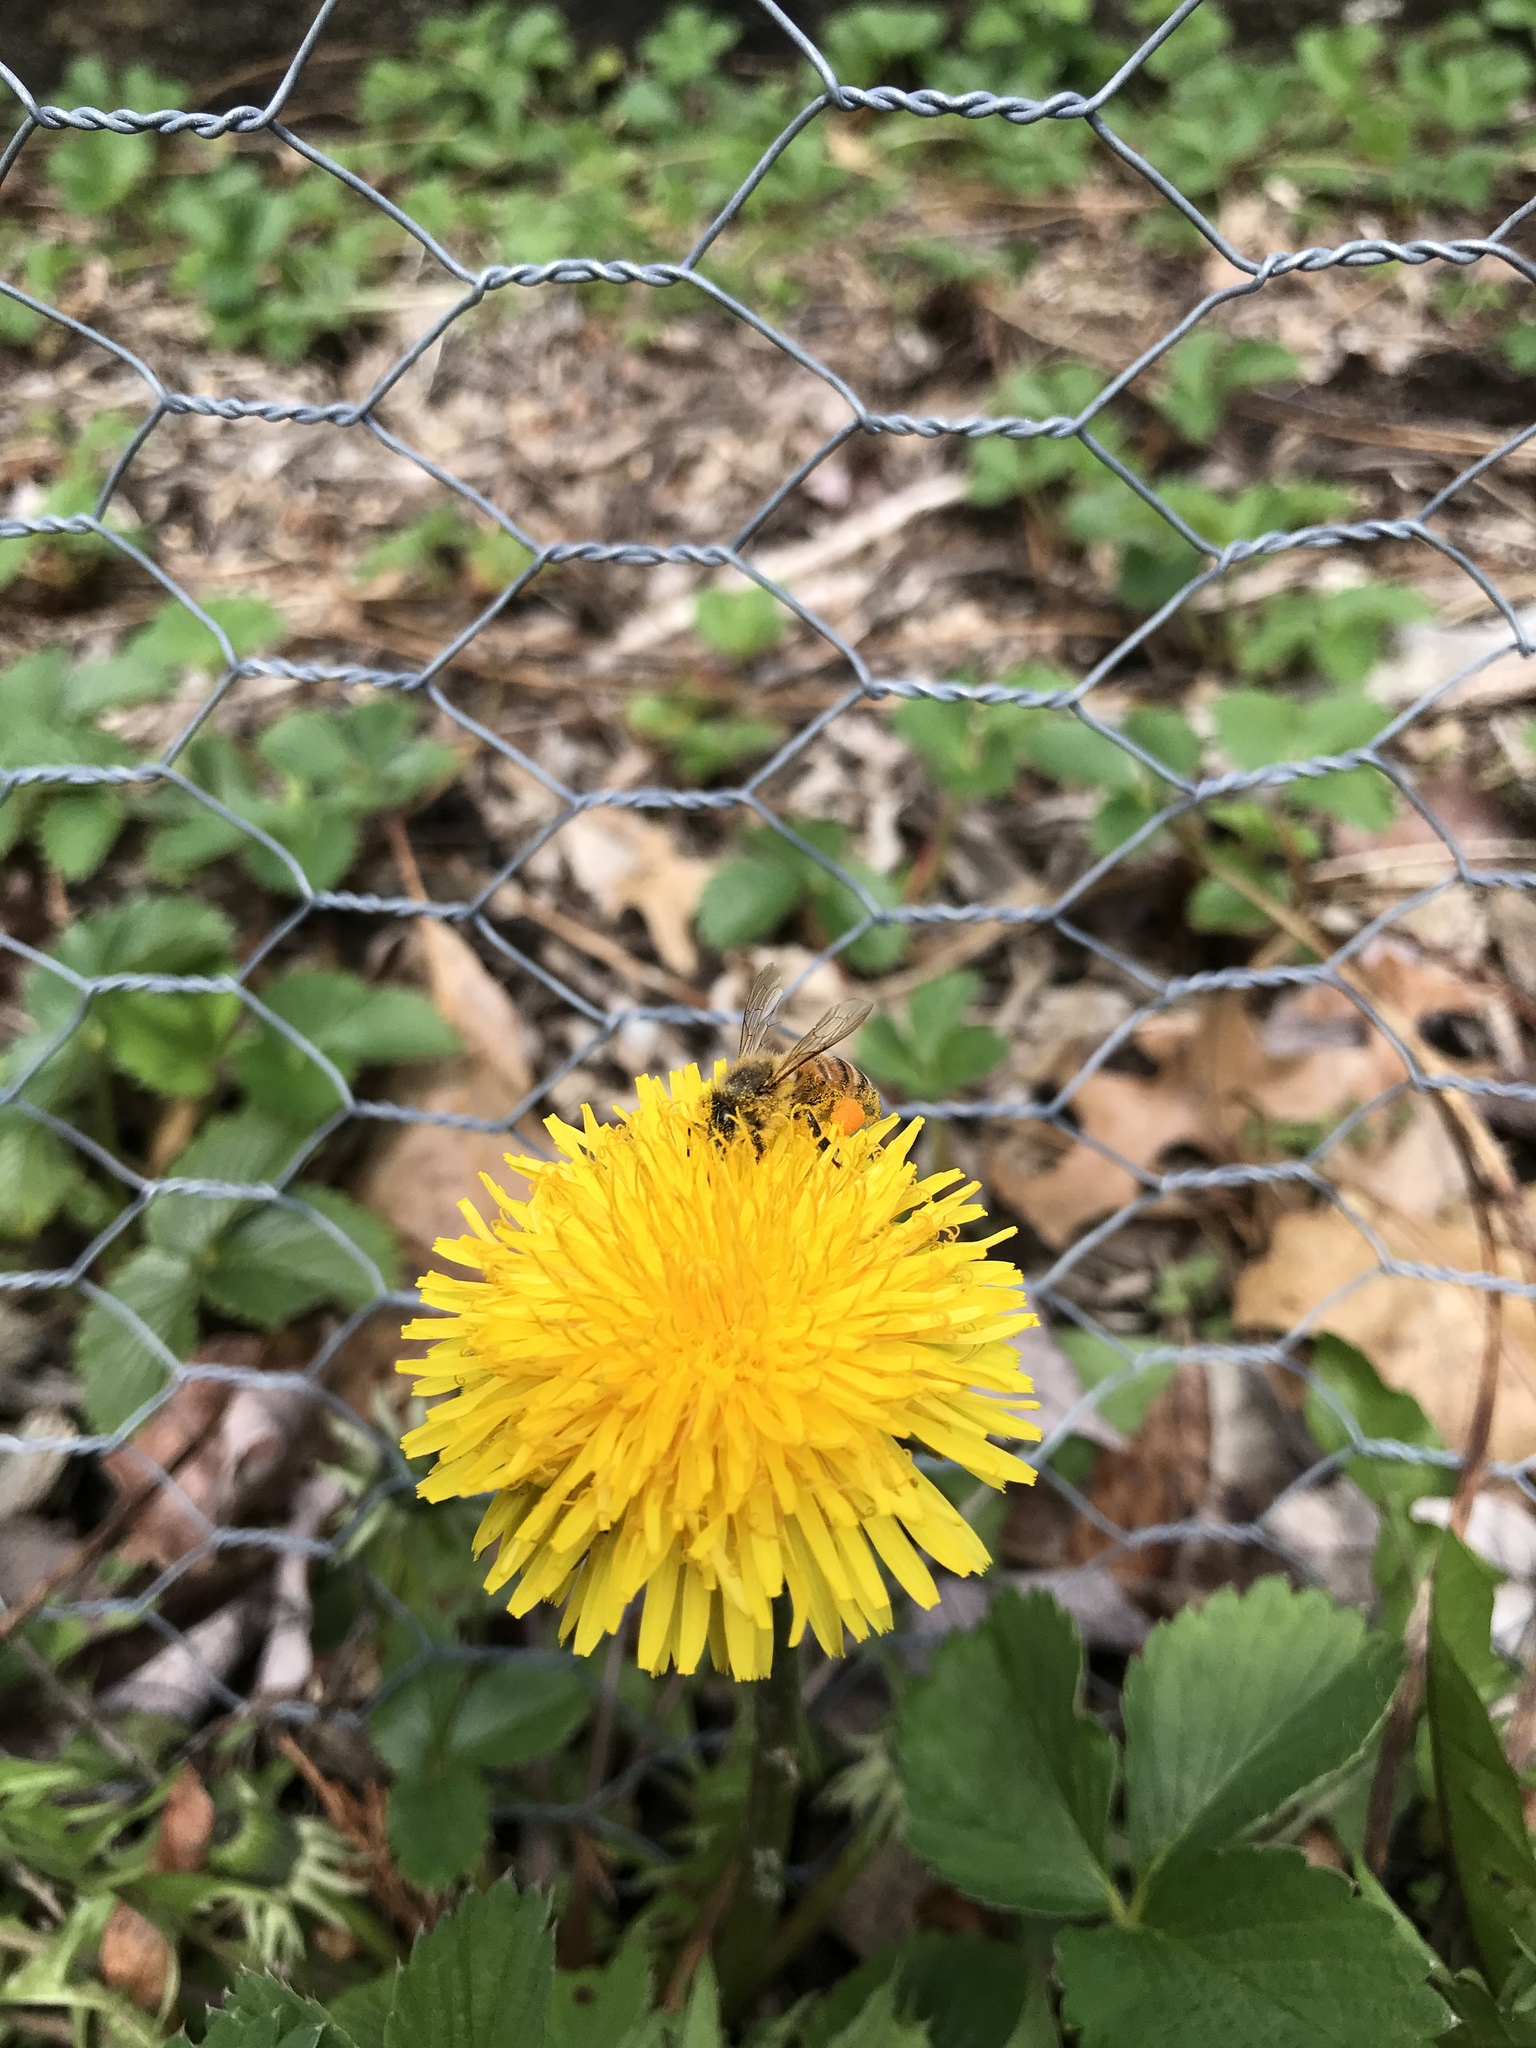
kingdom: Animalia
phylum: Arthropoda
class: Insecta
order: Hymenoptera
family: Apidae
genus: Apis
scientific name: Apis mellifera
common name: Honey bee
